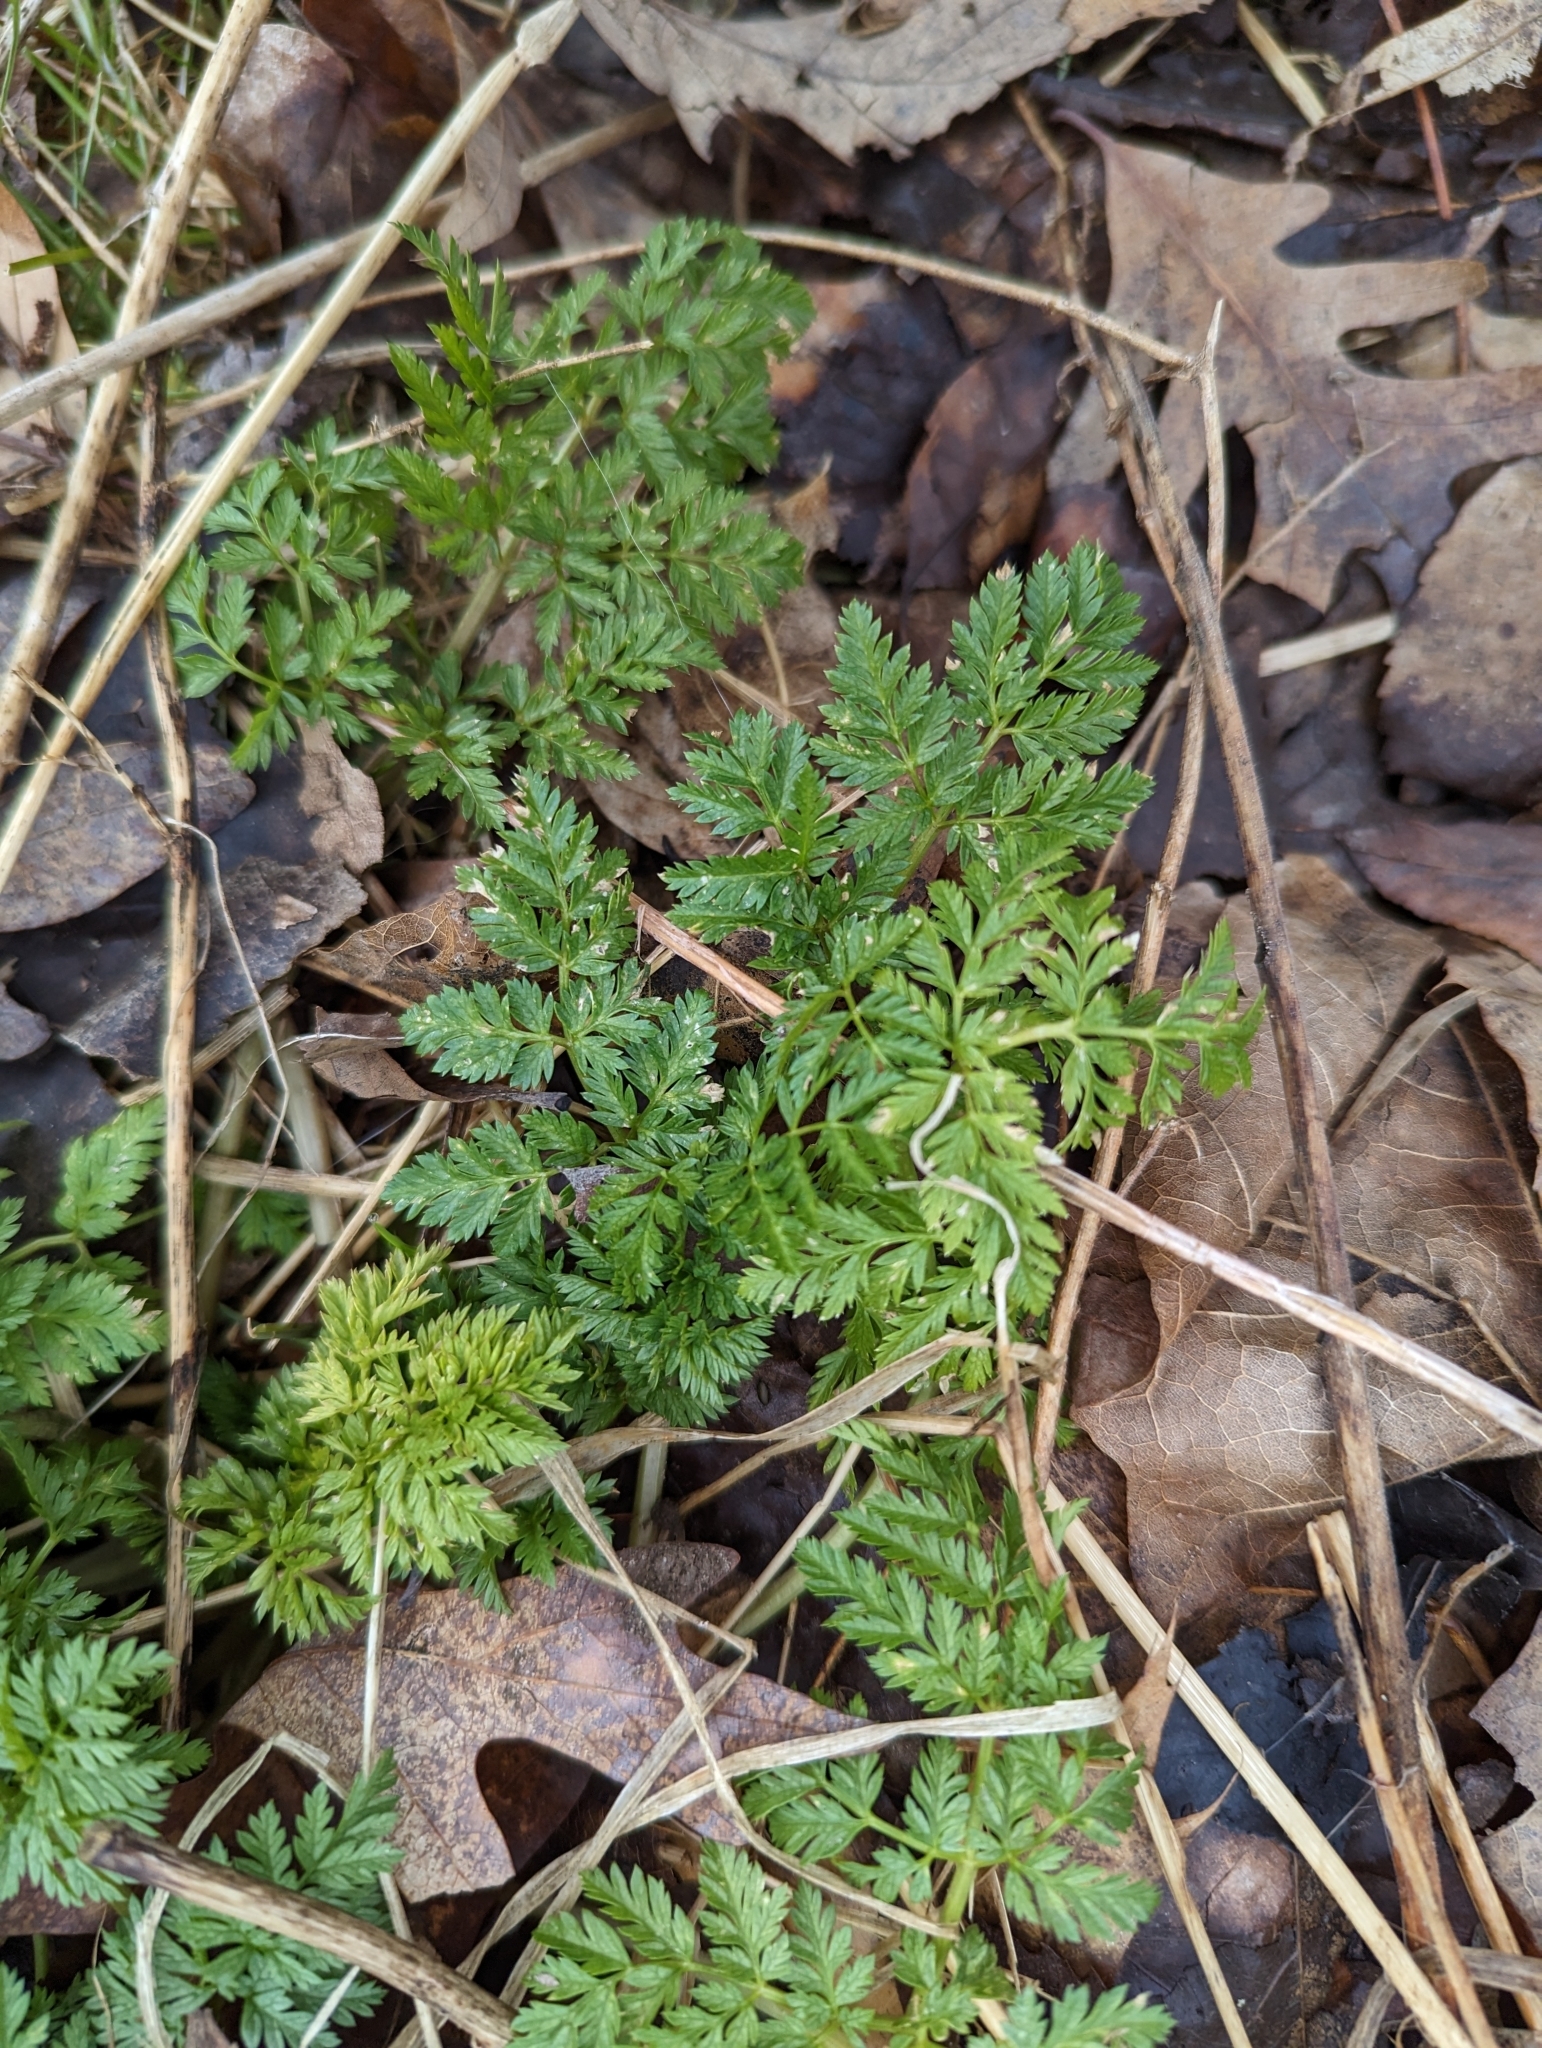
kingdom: Plantae
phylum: Tracheophyta
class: Magnoliopsida
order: Apiales
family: Apiaceae
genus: Conium
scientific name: Conium maculatum
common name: Hemlock
